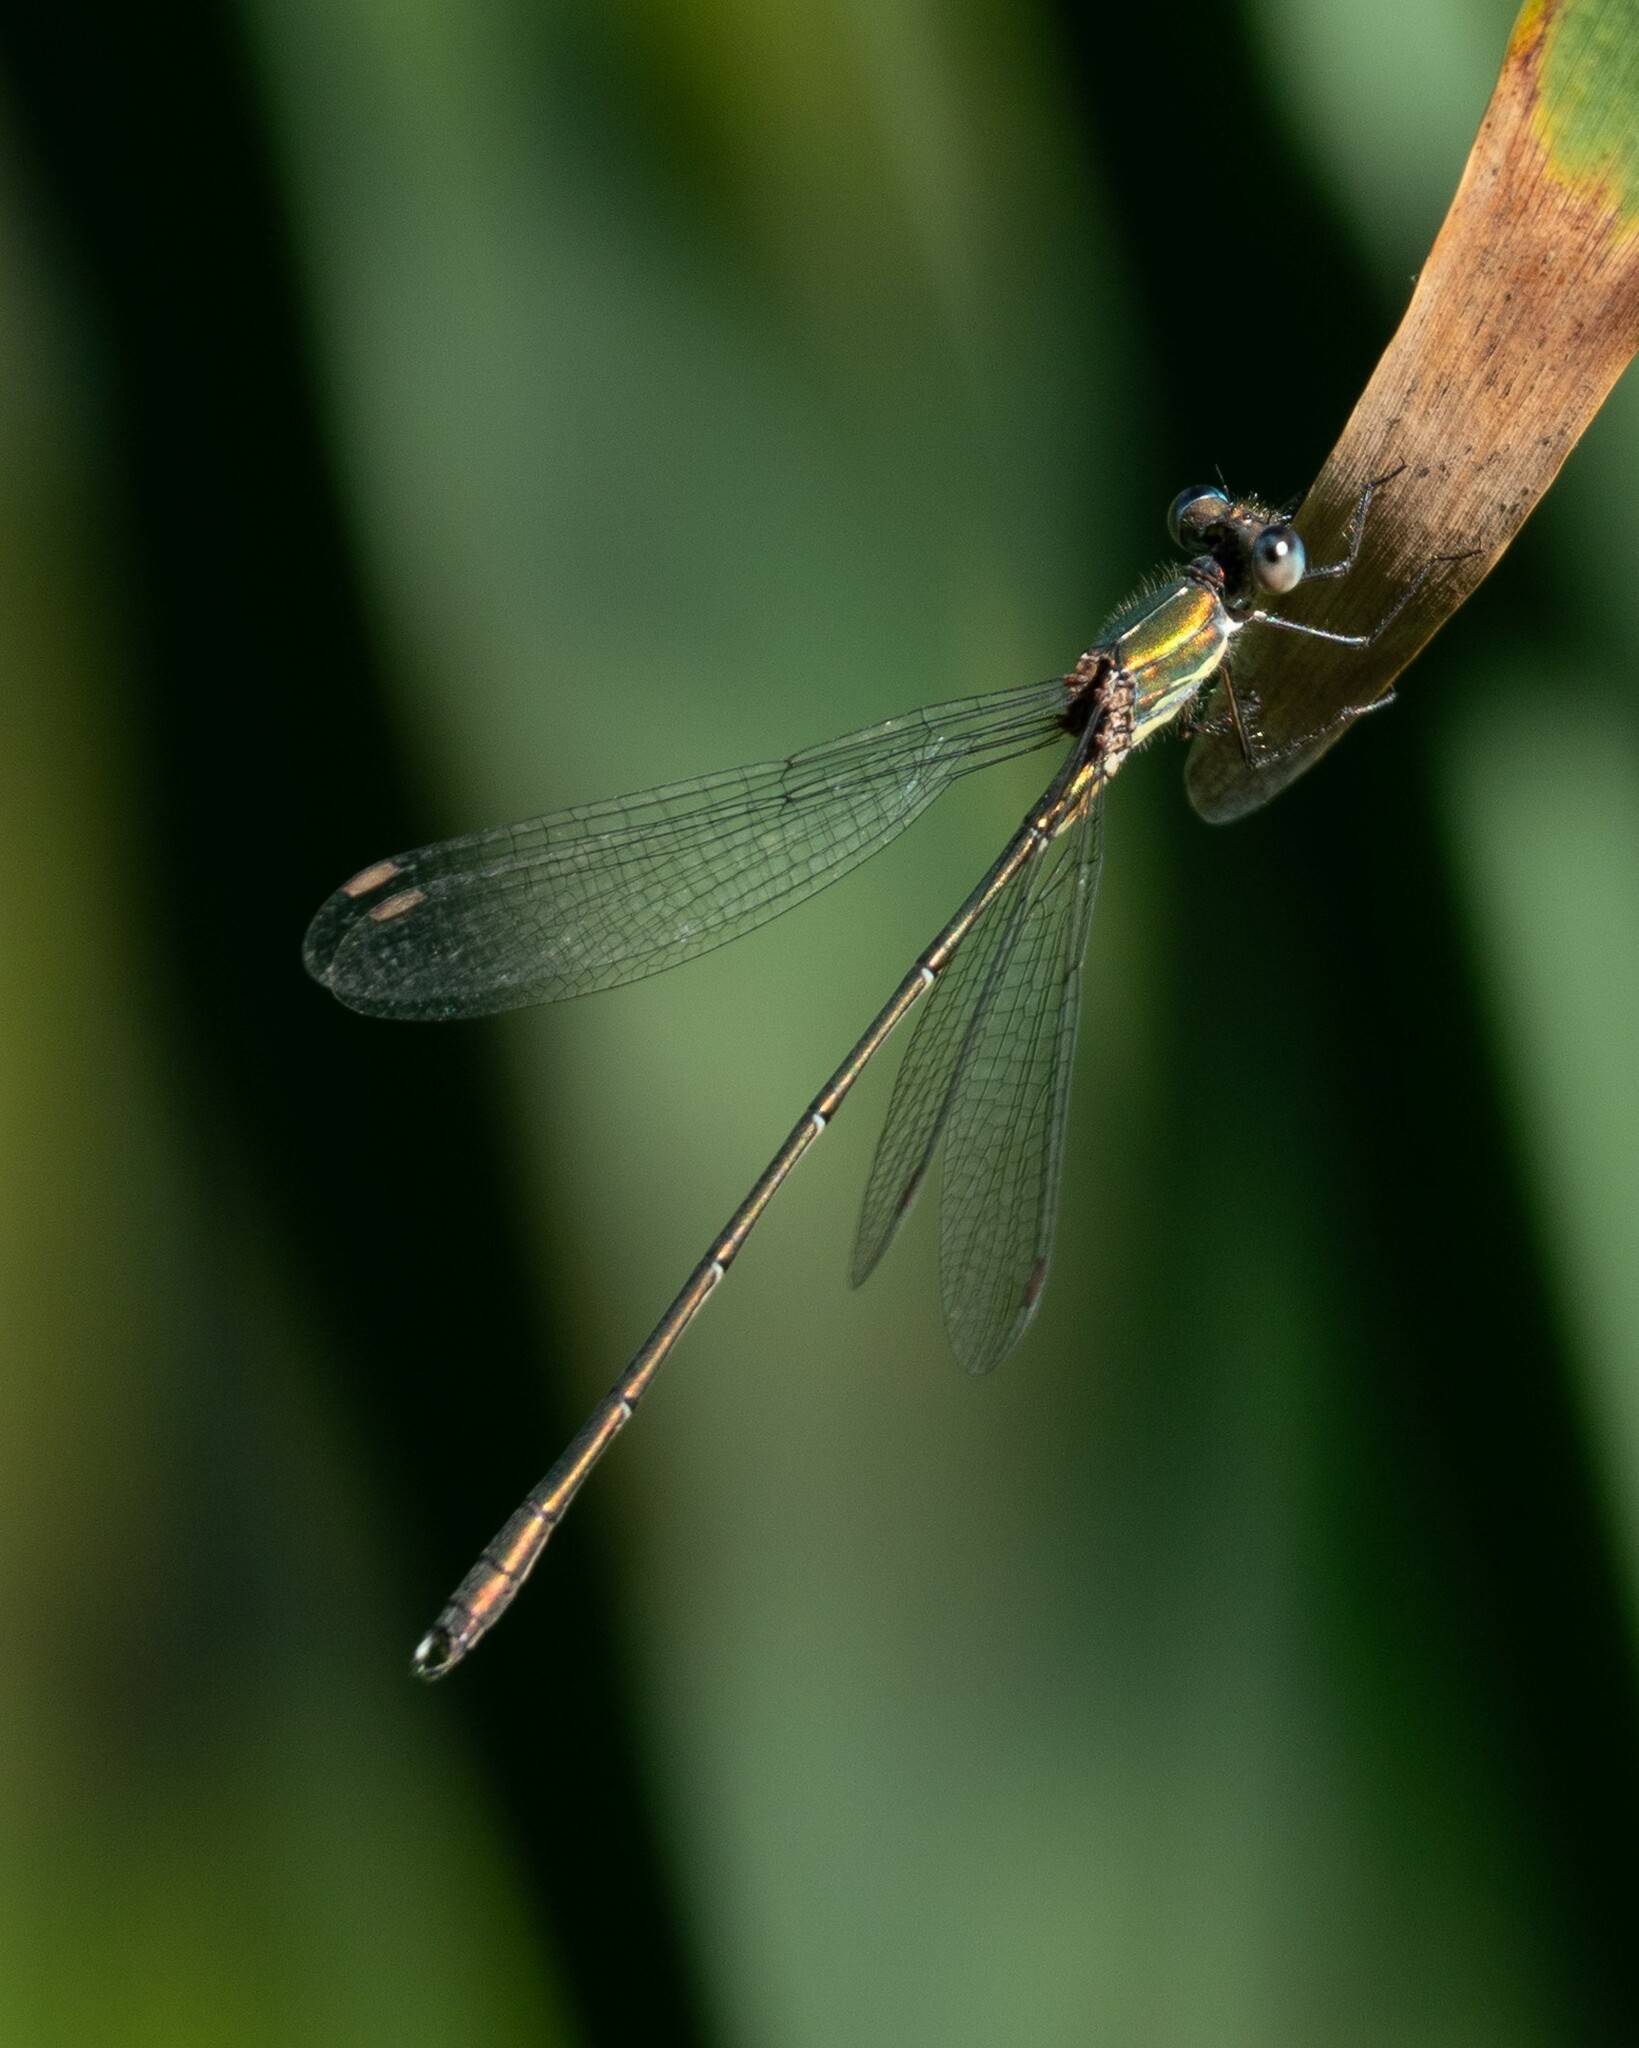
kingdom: Animalia
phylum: Arthropoda
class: Insecta
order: Odonata
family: Lestidae
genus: Chalcolestes
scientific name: Chalcolestes viridis
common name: Green emerald damselfly
